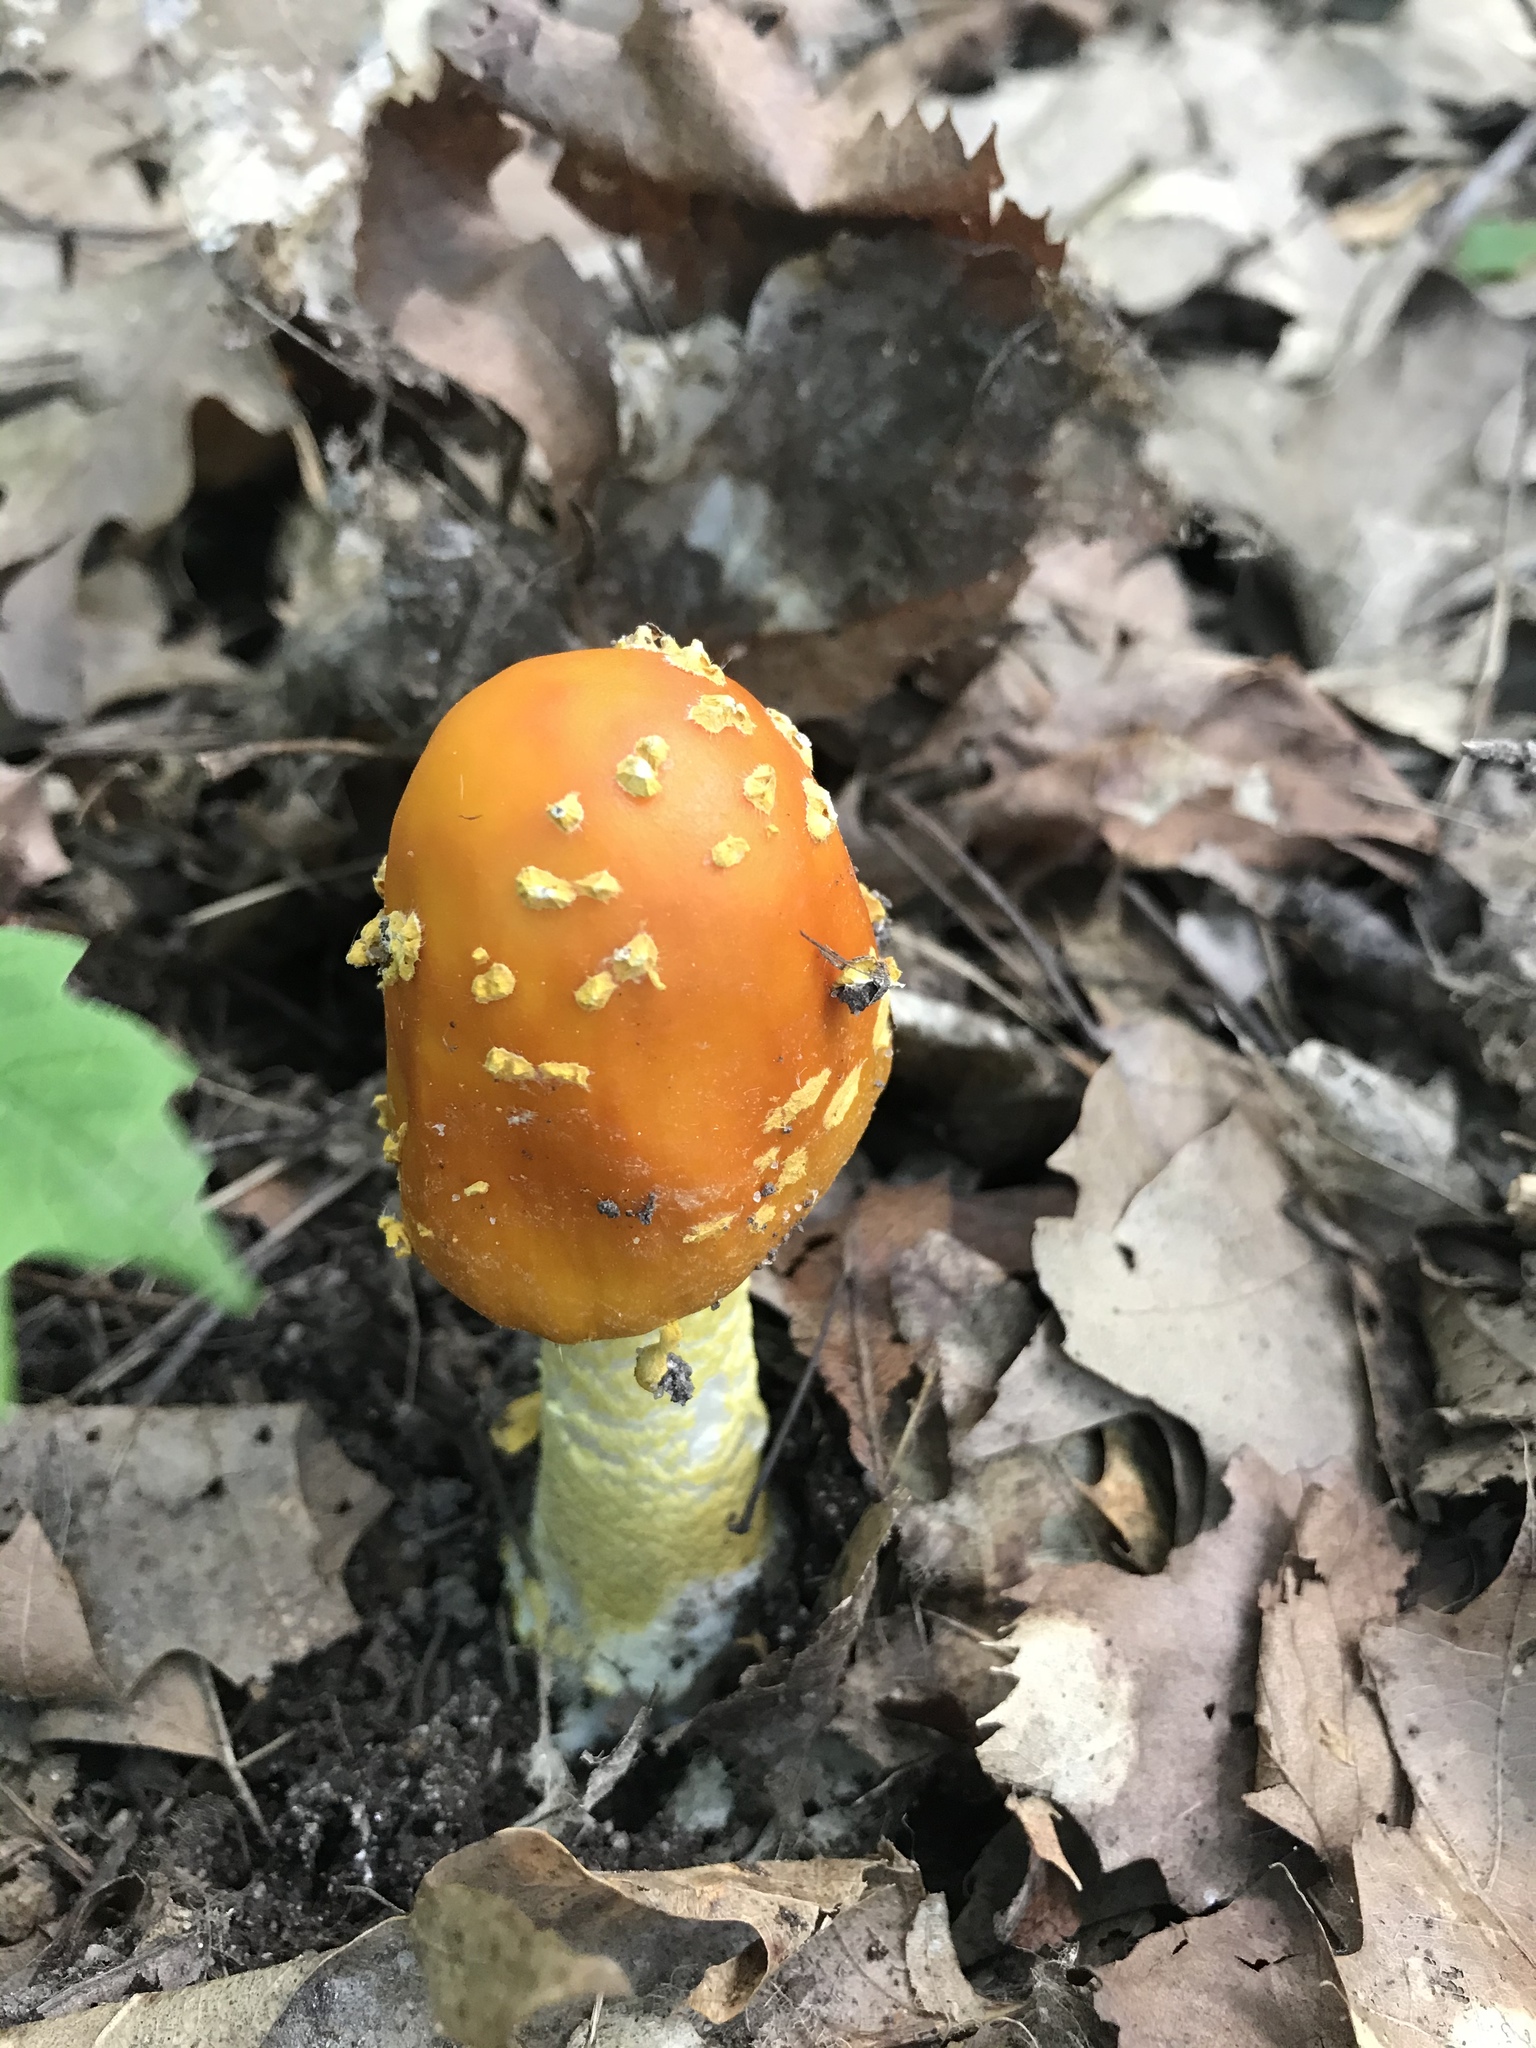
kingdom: Fungi
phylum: Basidiomycota
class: Agaricomycetes
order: Agaricales
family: Amanitaceae
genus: Amanita
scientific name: Amanita flavoconia
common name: Yellow patches
